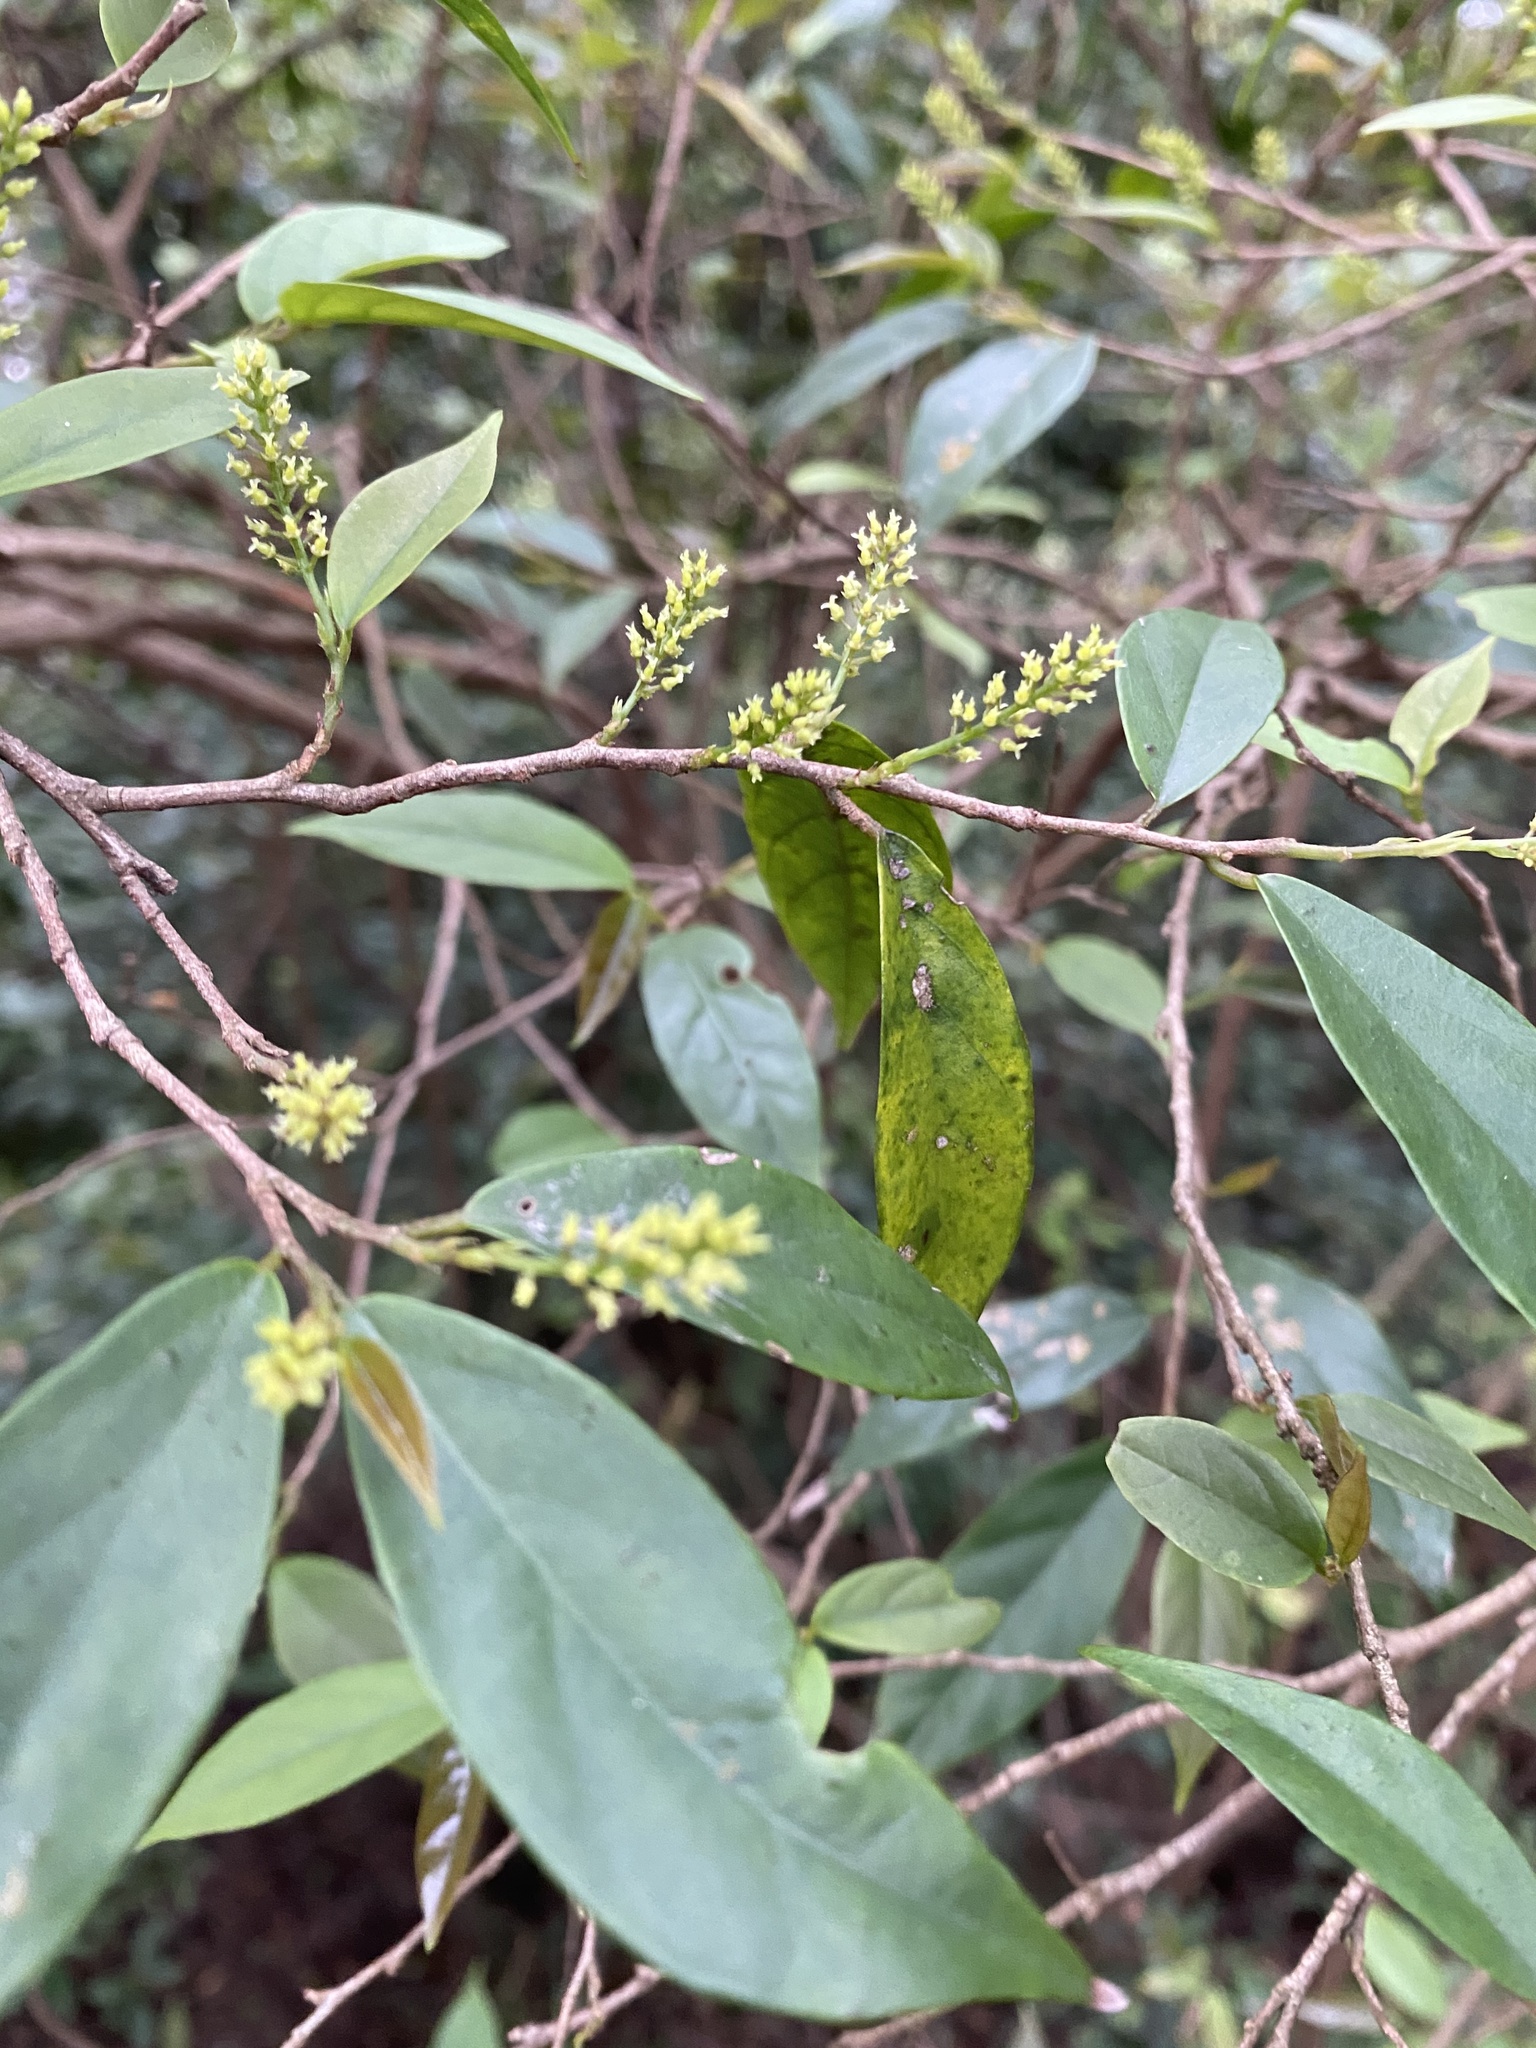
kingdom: Plantae
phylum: Tracheophyta
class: Magnoliopsida
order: Malpighiales
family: Phyllanthaceae
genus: Antidesma
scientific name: Antidesma japonicum
